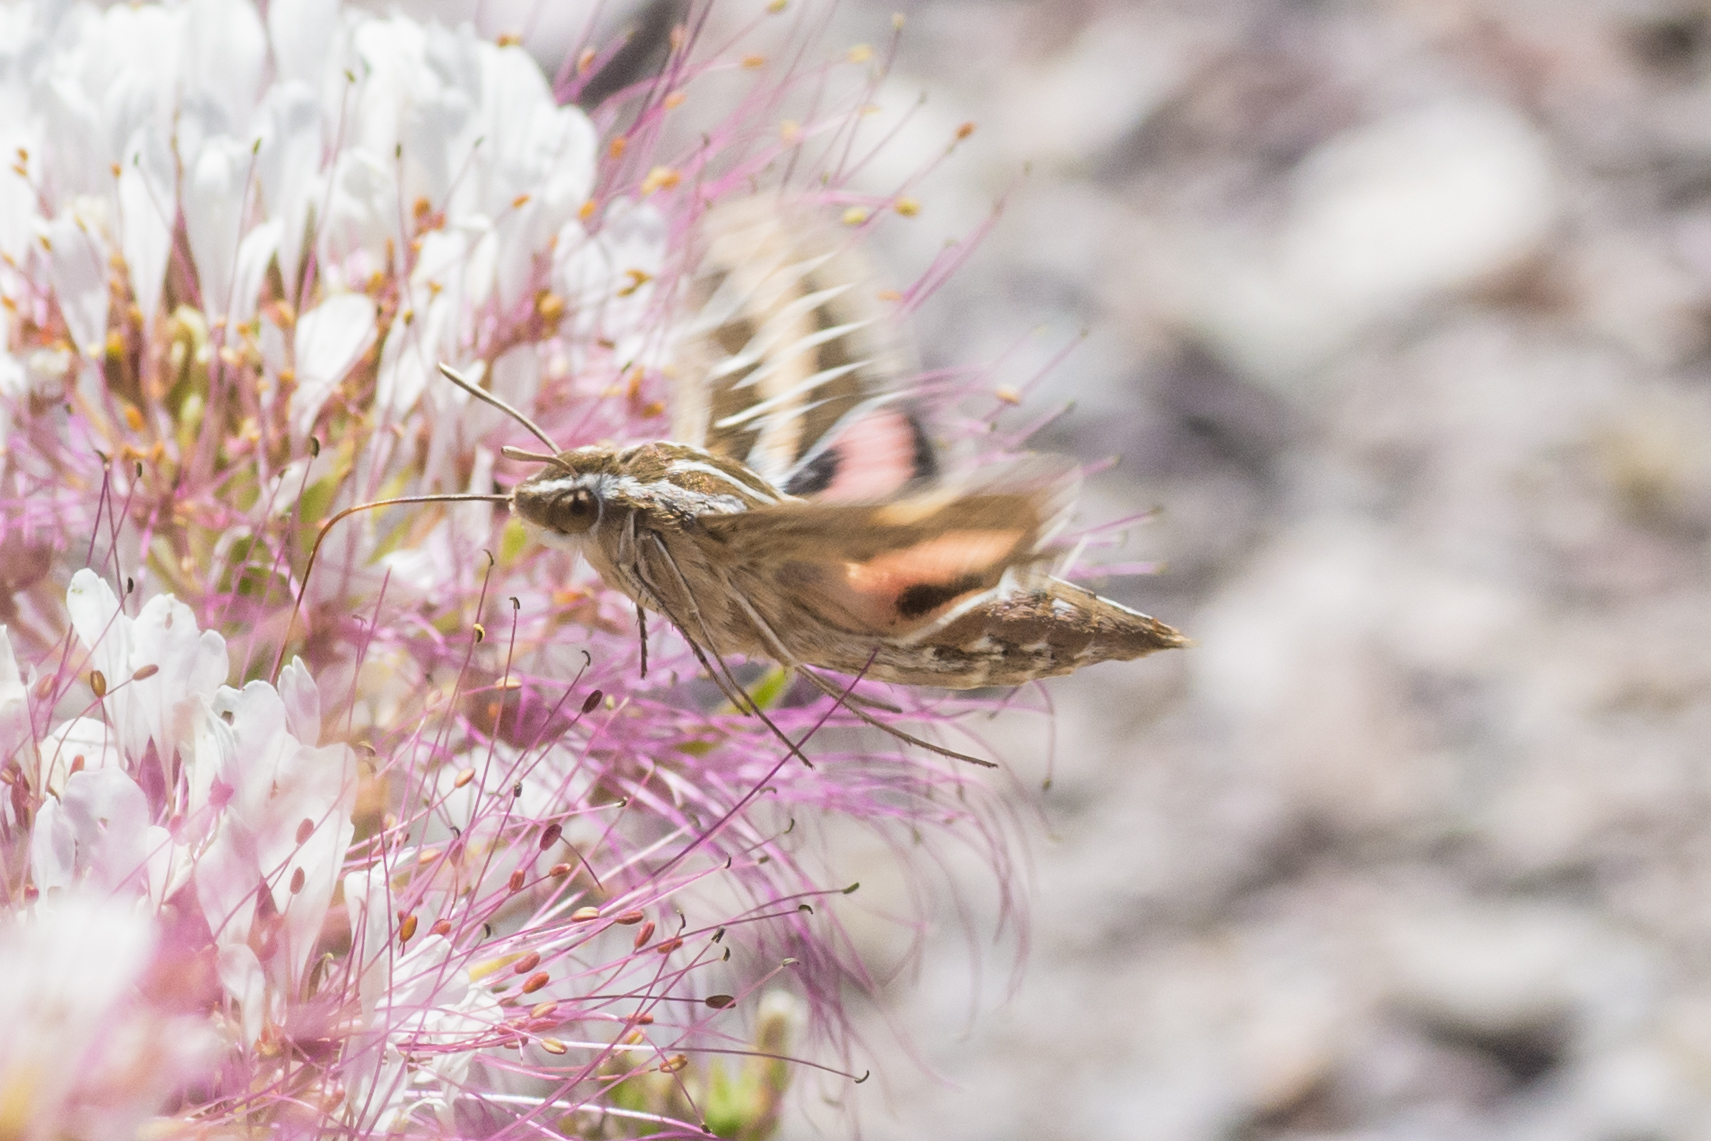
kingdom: Animalia
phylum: Arthropoda
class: Insecta
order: Lepidoptera
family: Sphingidae
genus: Hyles
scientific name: Hyles lineata
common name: White-lined sphinx
